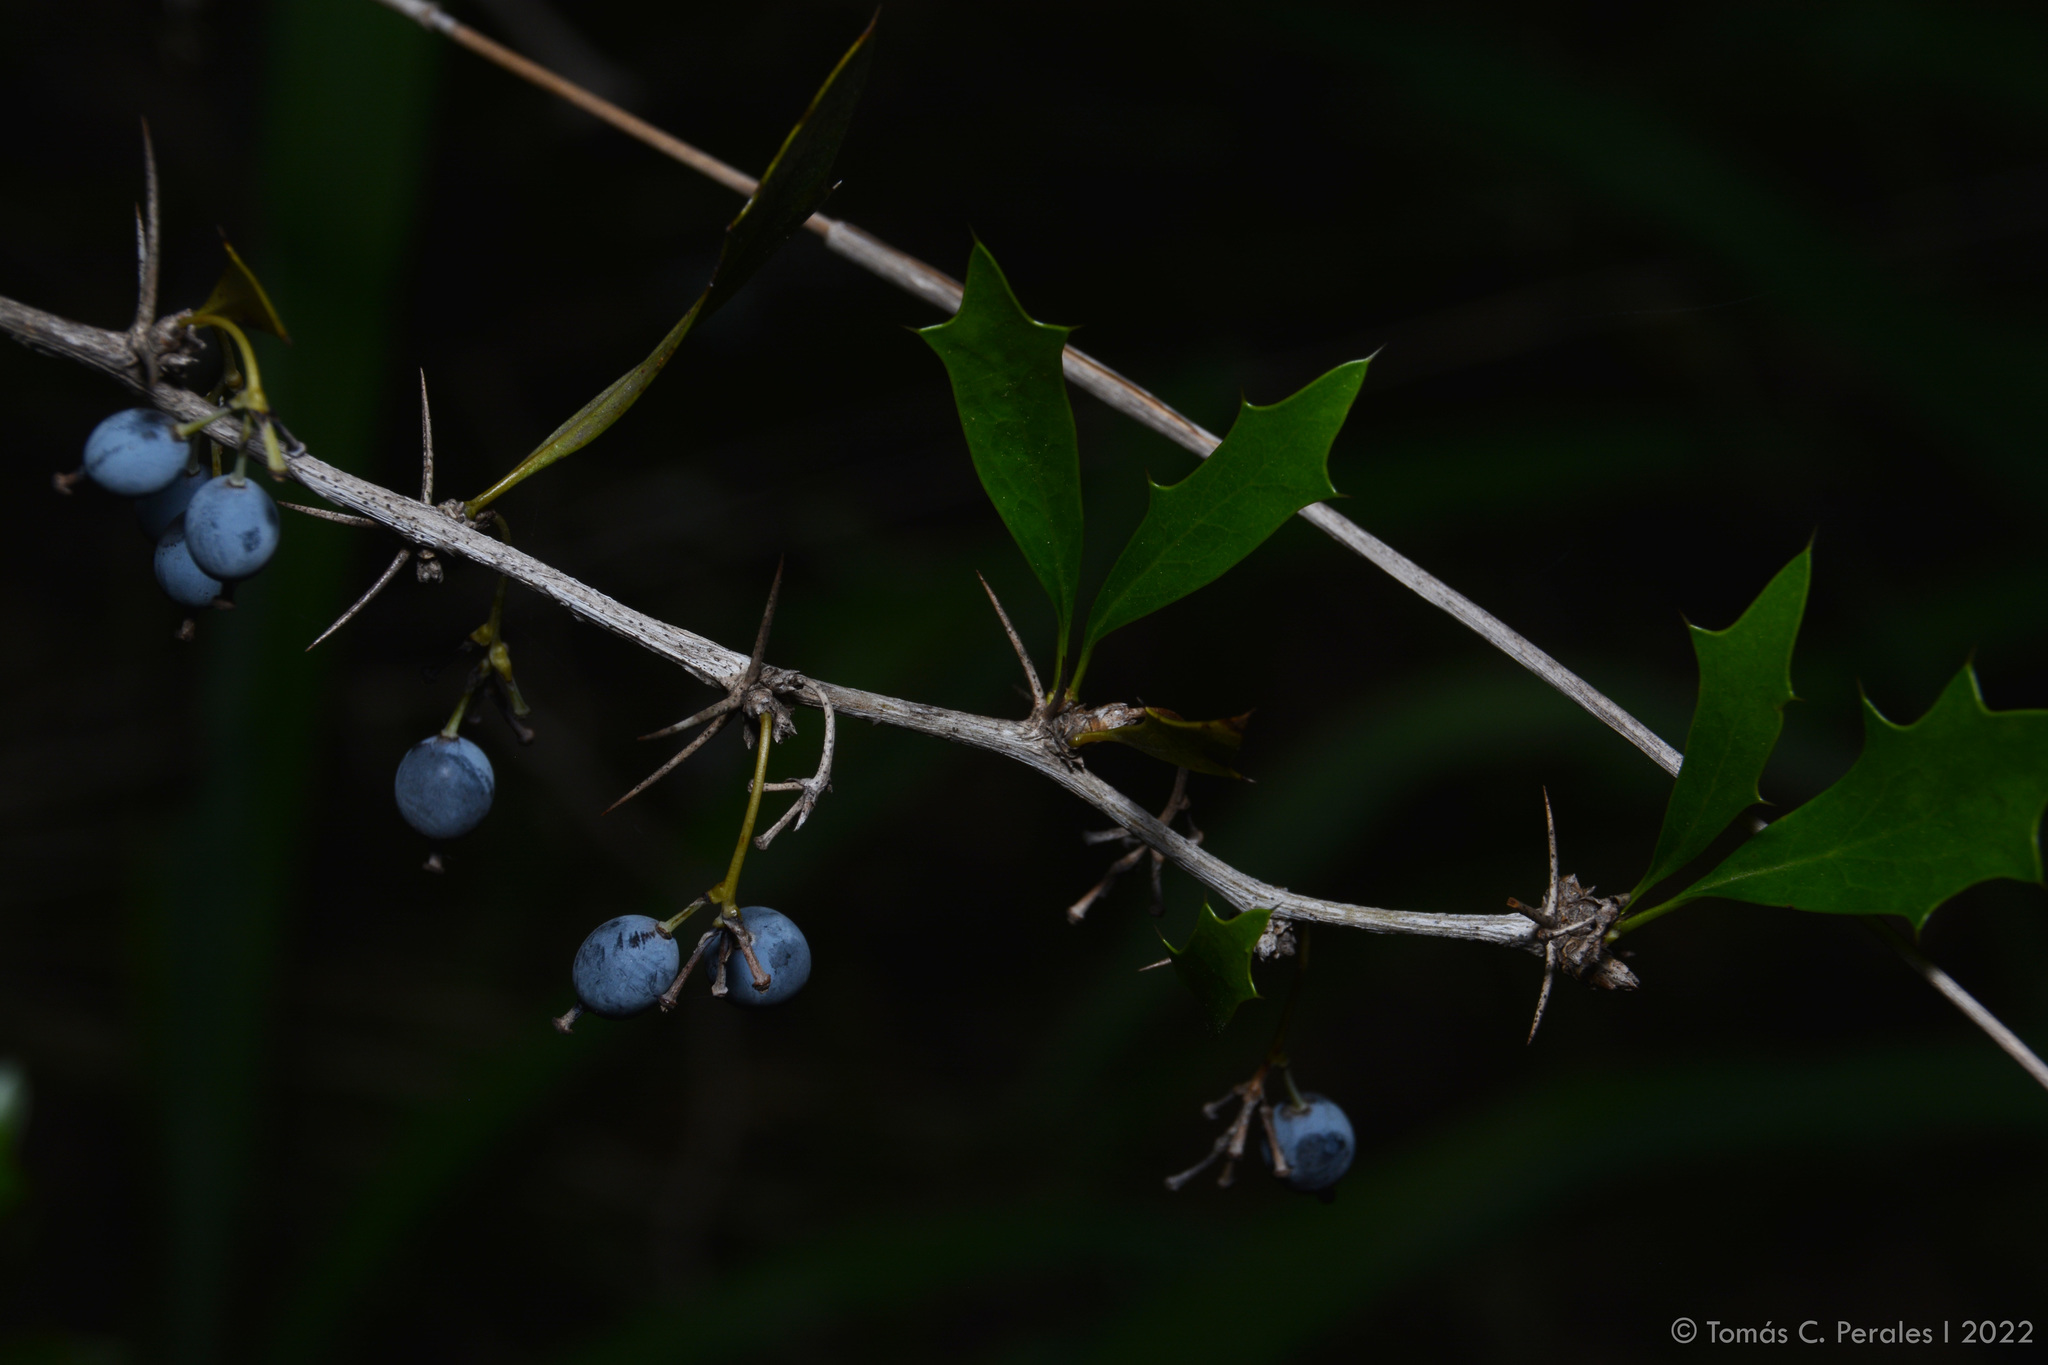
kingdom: Plantae
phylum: Tracheophyta
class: Magnoliopsida
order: Ranunculales
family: Berberidaceae
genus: Berberis
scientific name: Berberis ruscifolia
